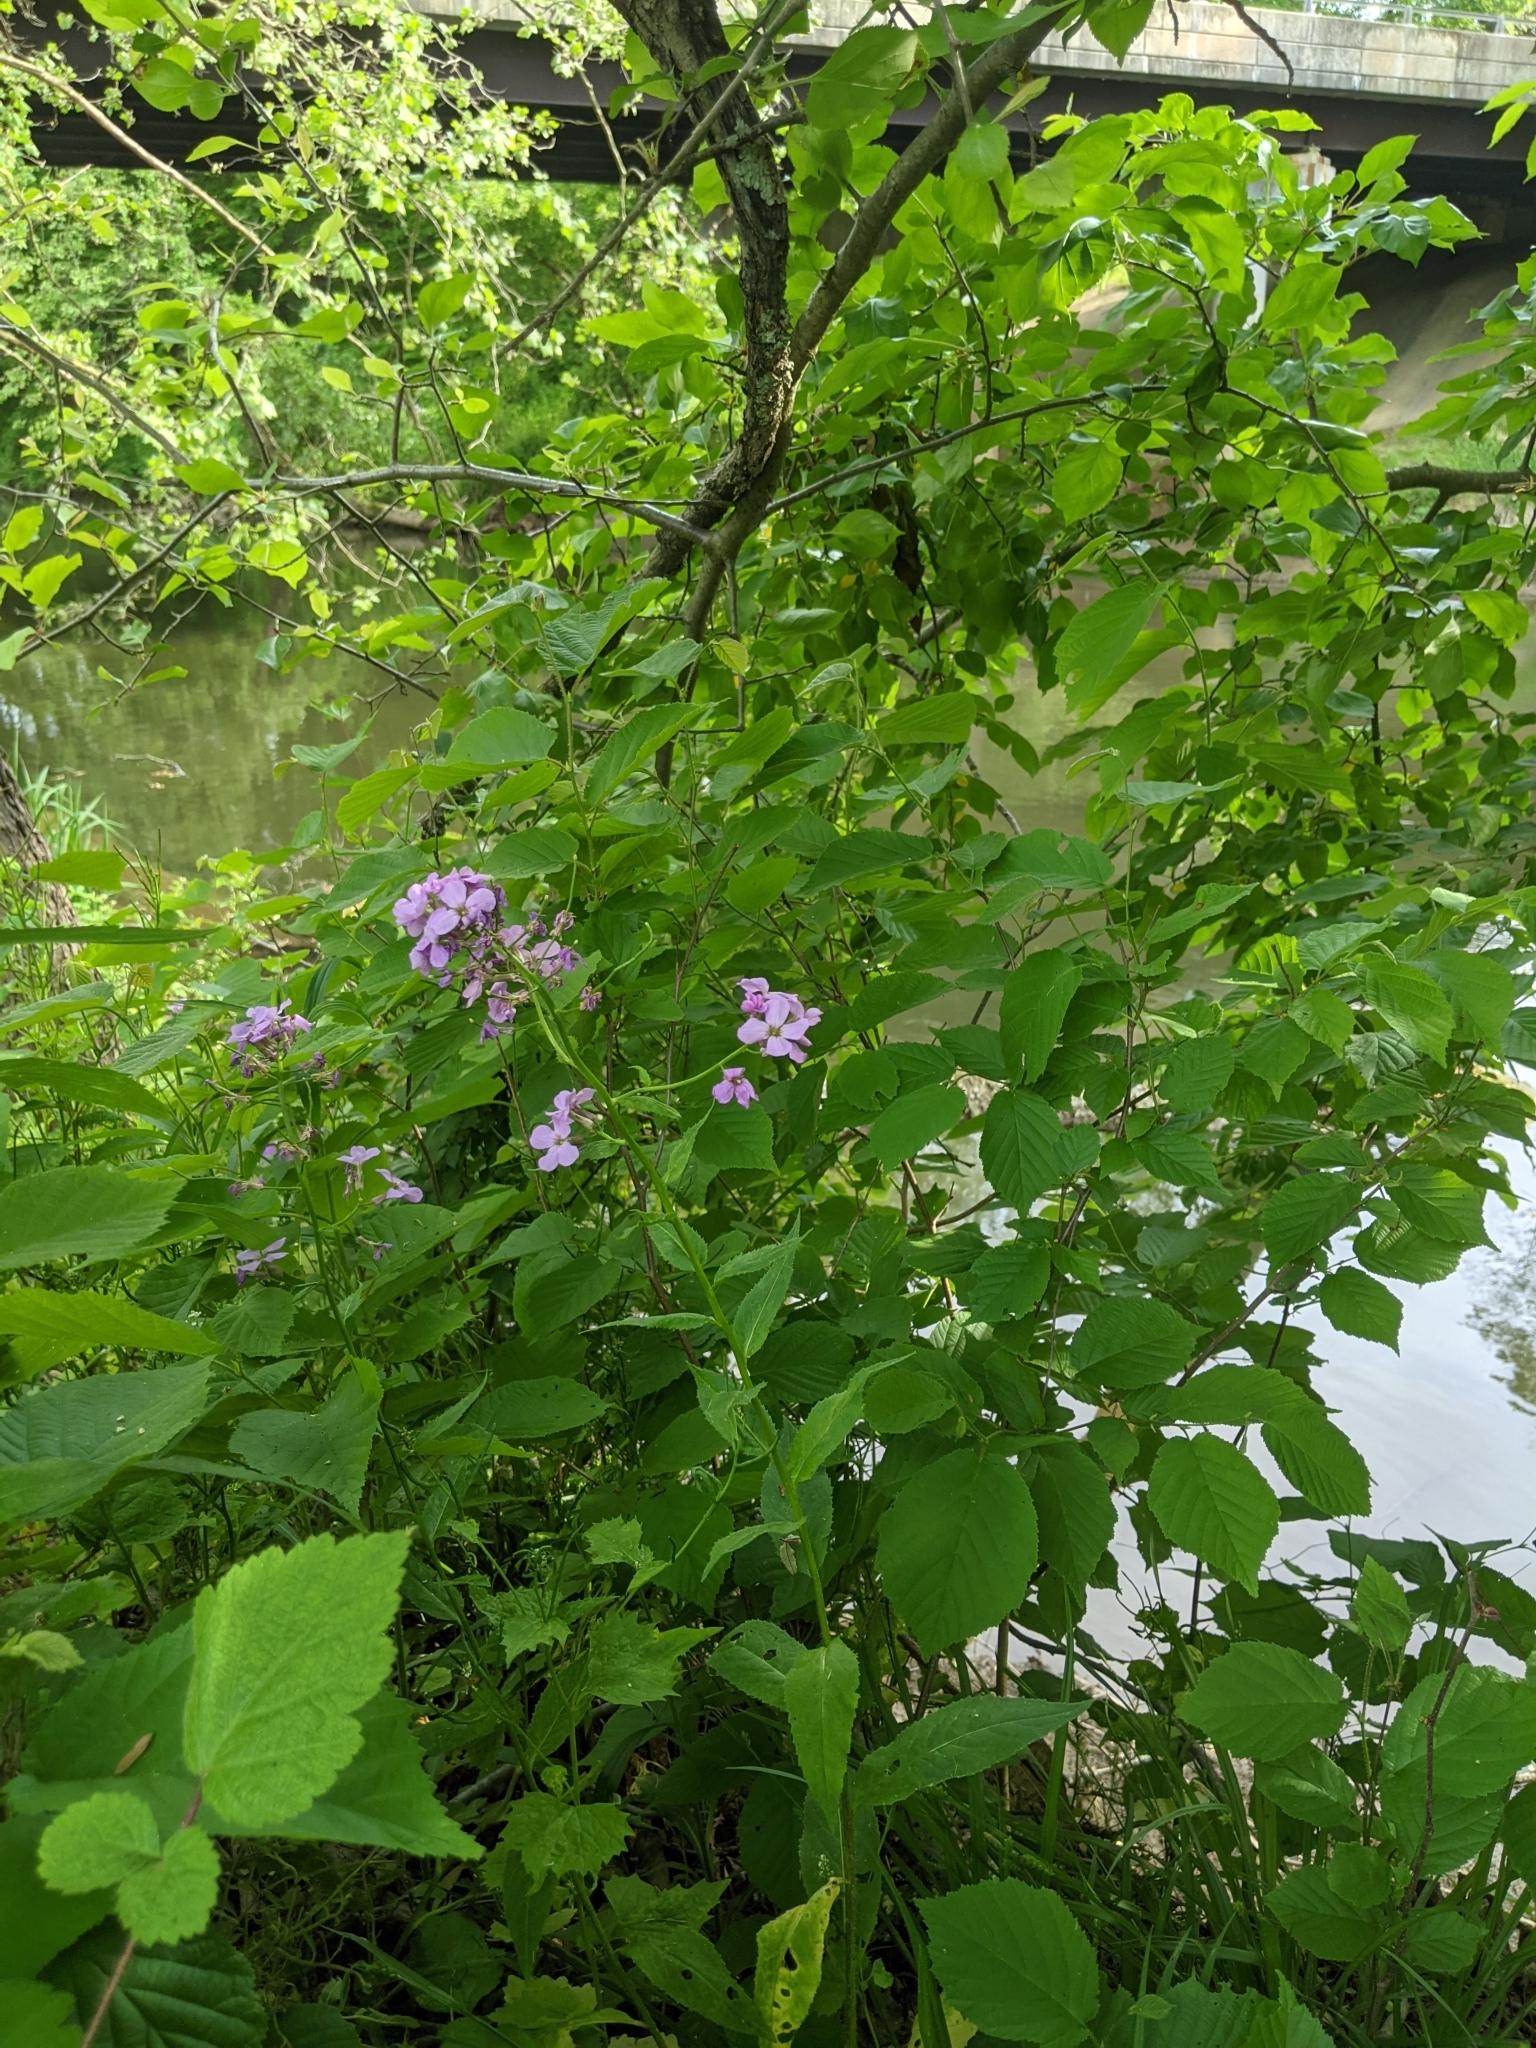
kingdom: Plantae
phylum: Tracheophyta
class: Magnoliopsida
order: Brassicales
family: Brassicaceae
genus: Hesperis
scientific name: Hesperis matronalis
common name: Dame's-violet
